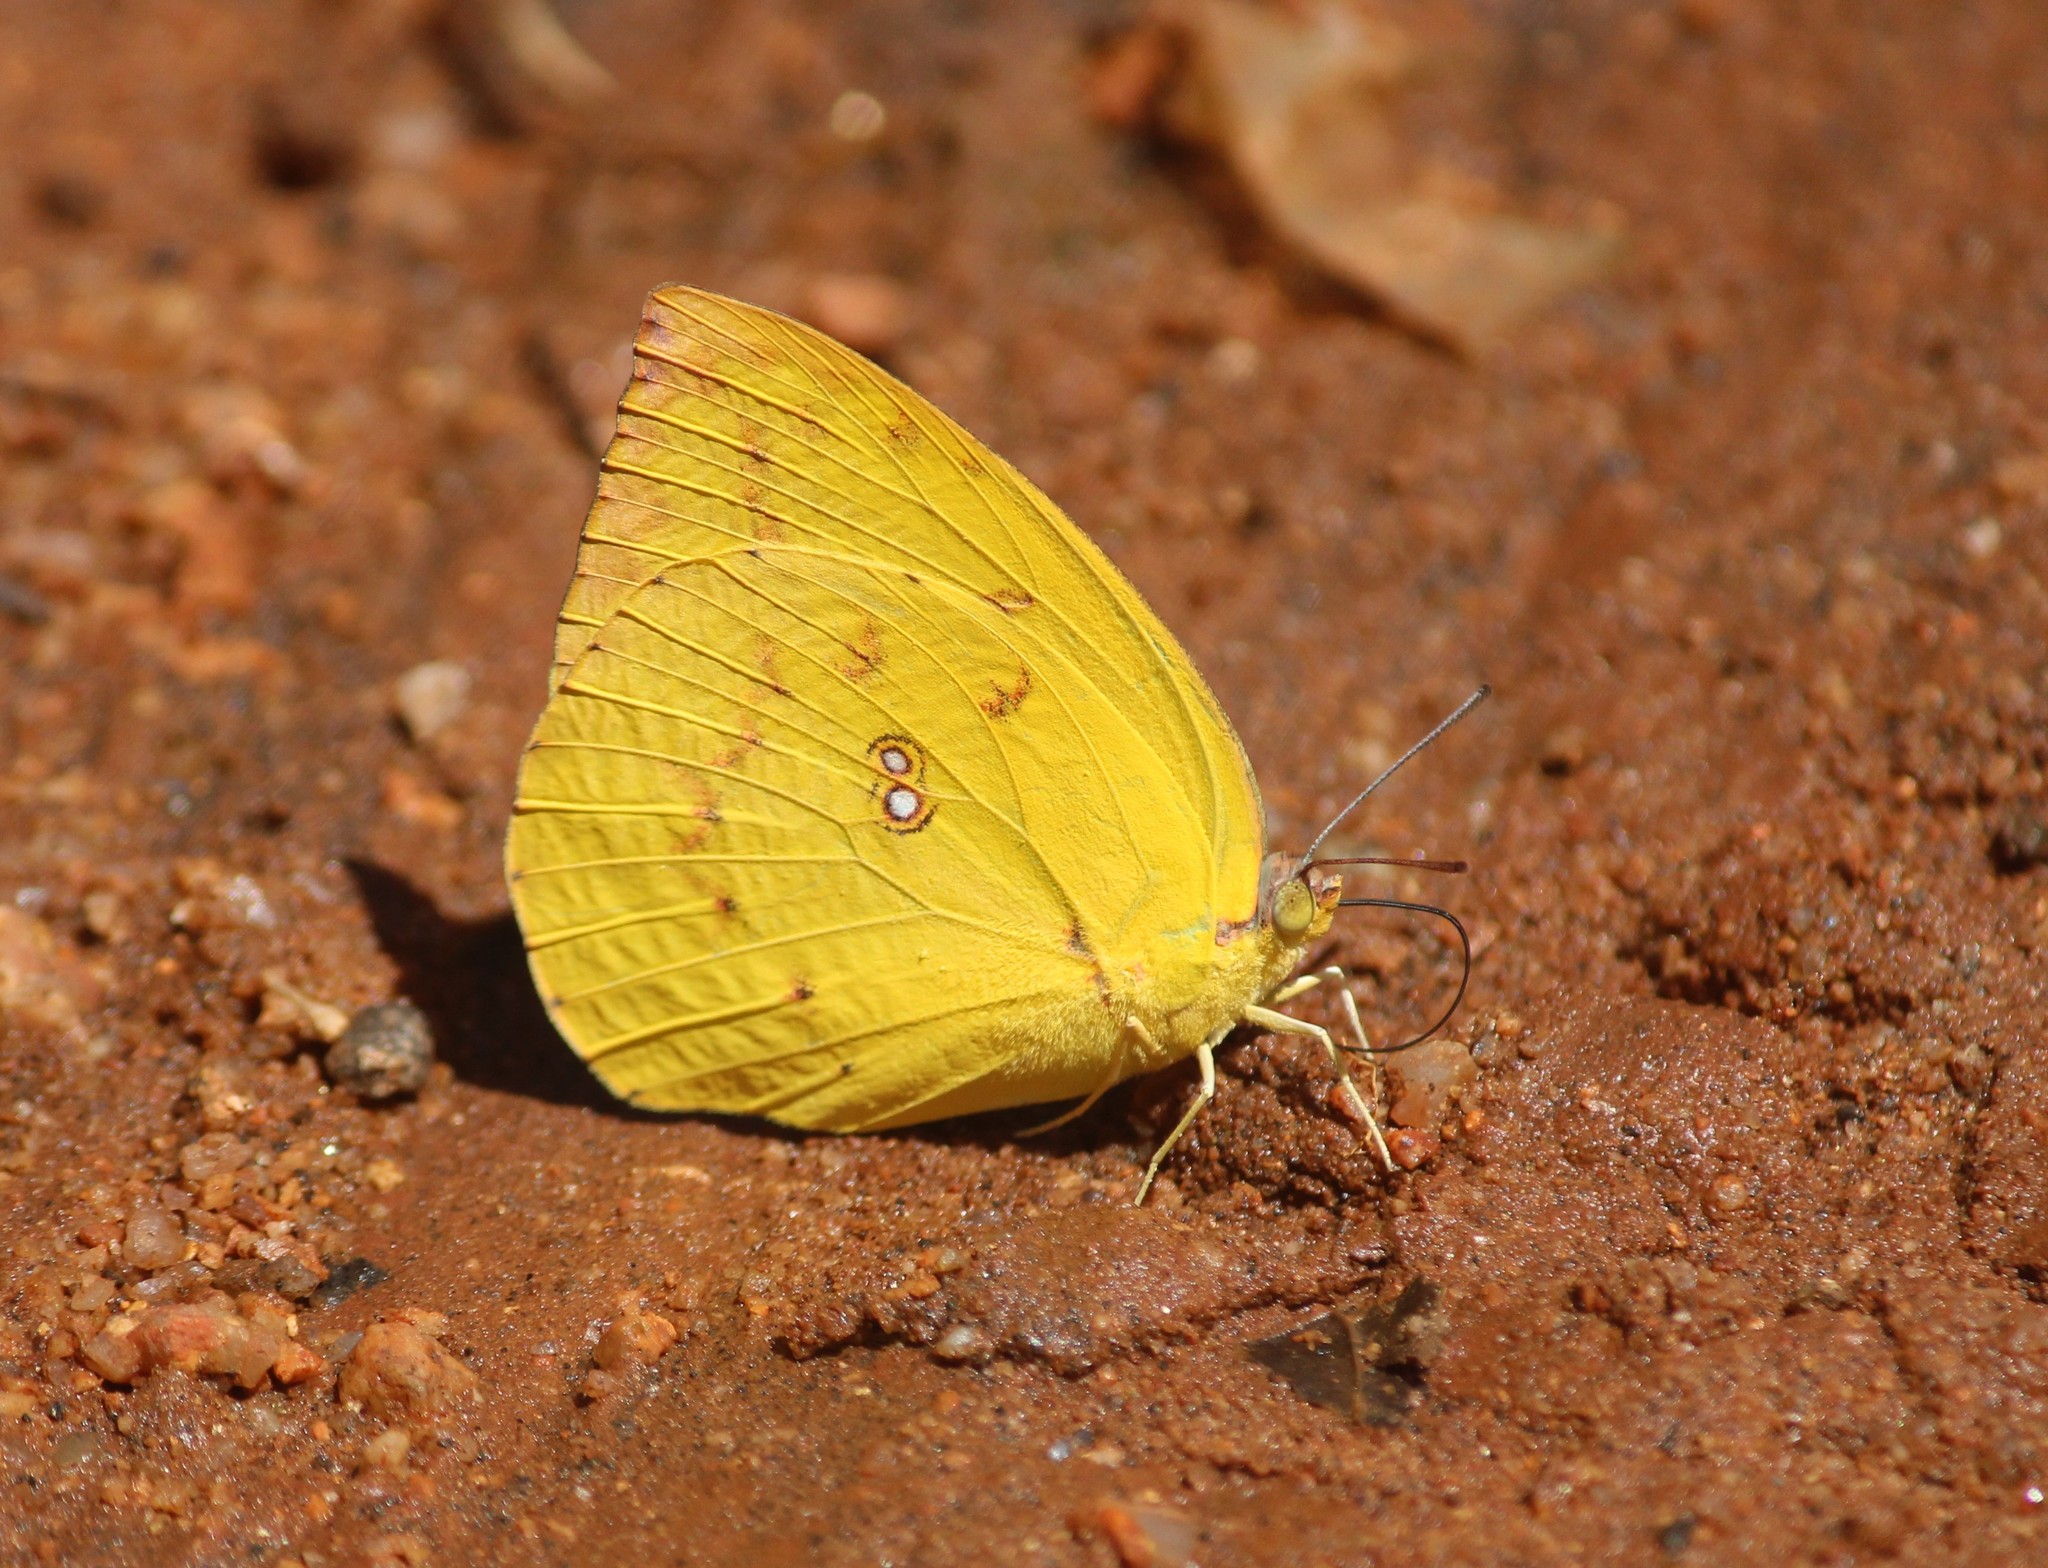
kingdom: Animalia
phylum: Arthropoda
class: Insecta
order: Lepidoptera
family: Pieridae
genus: Catopsilia
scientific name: Catopsilia pomona
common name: Common emigrant
